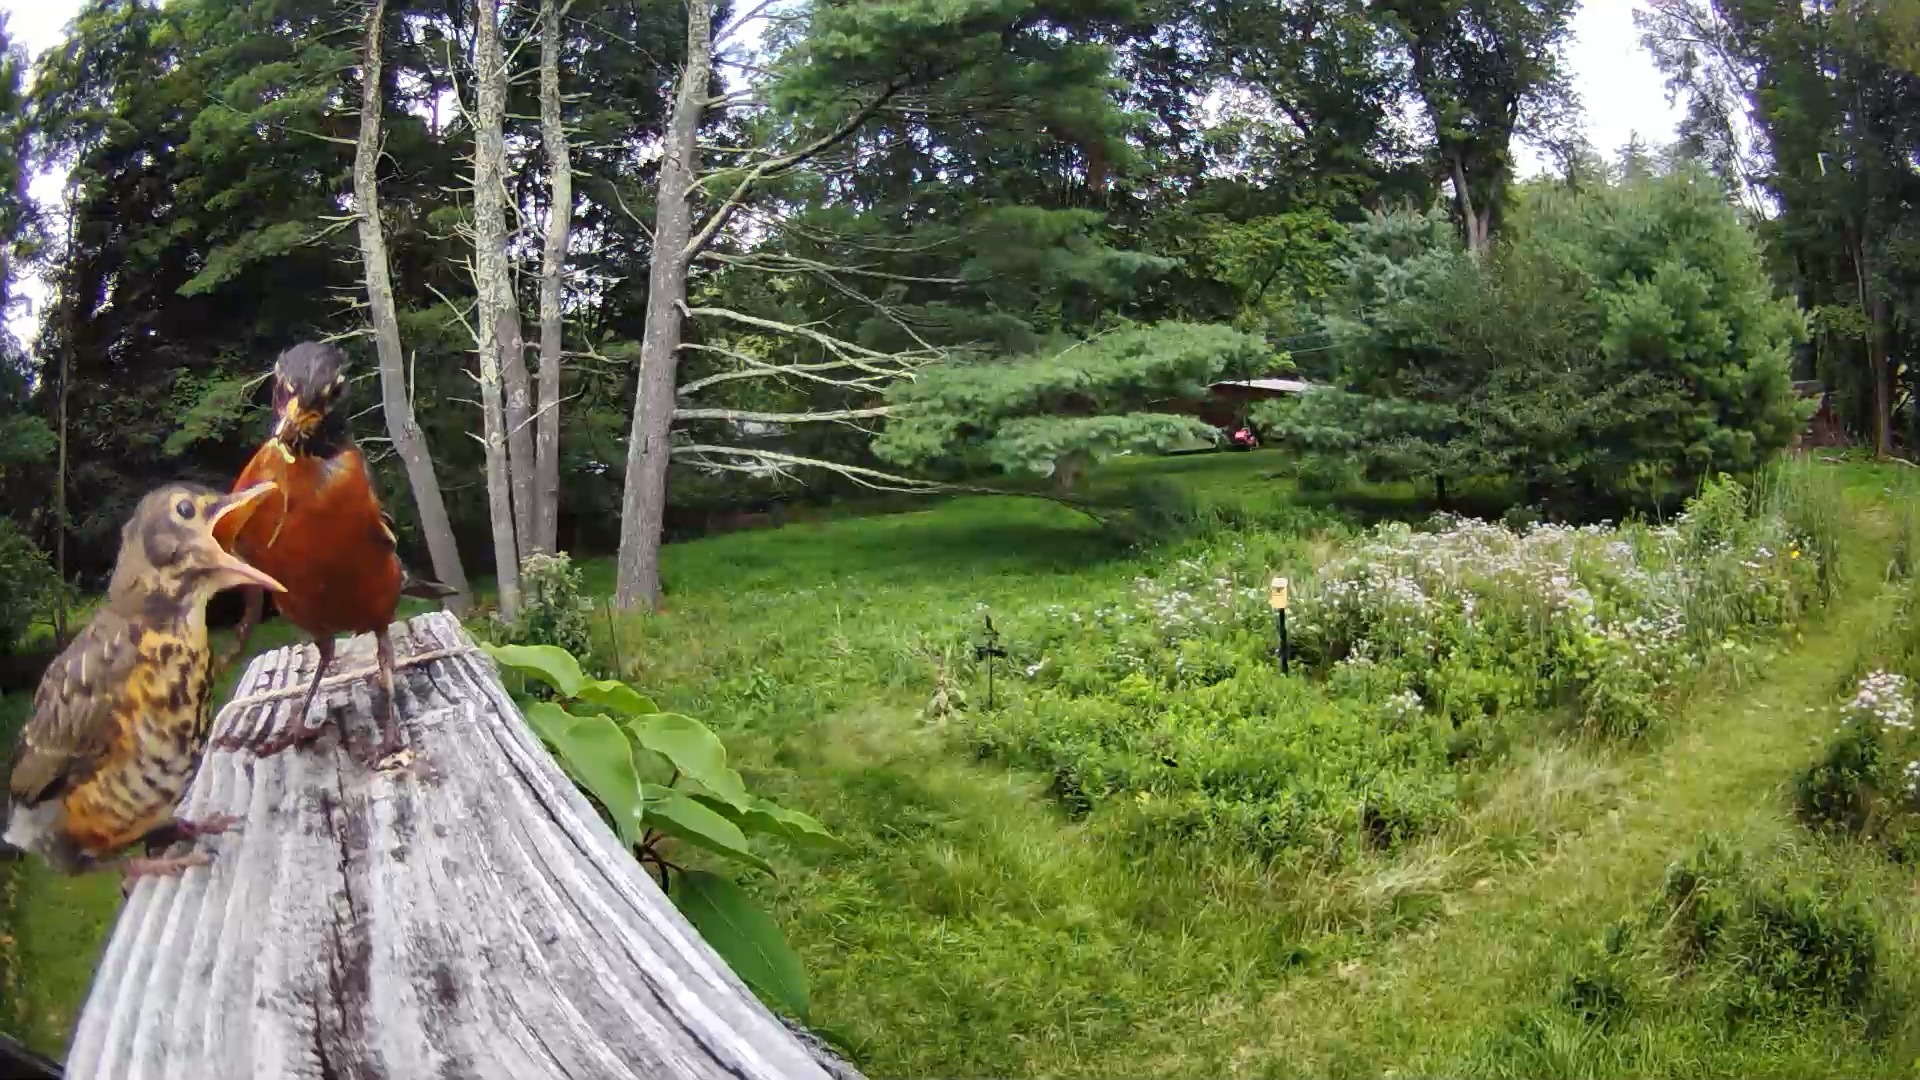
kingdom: Animalia
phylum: Chordata
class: Aves
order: Passeriformes
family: Turdidae
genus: Turdus
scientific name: Turdus migratorius
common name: American robin
